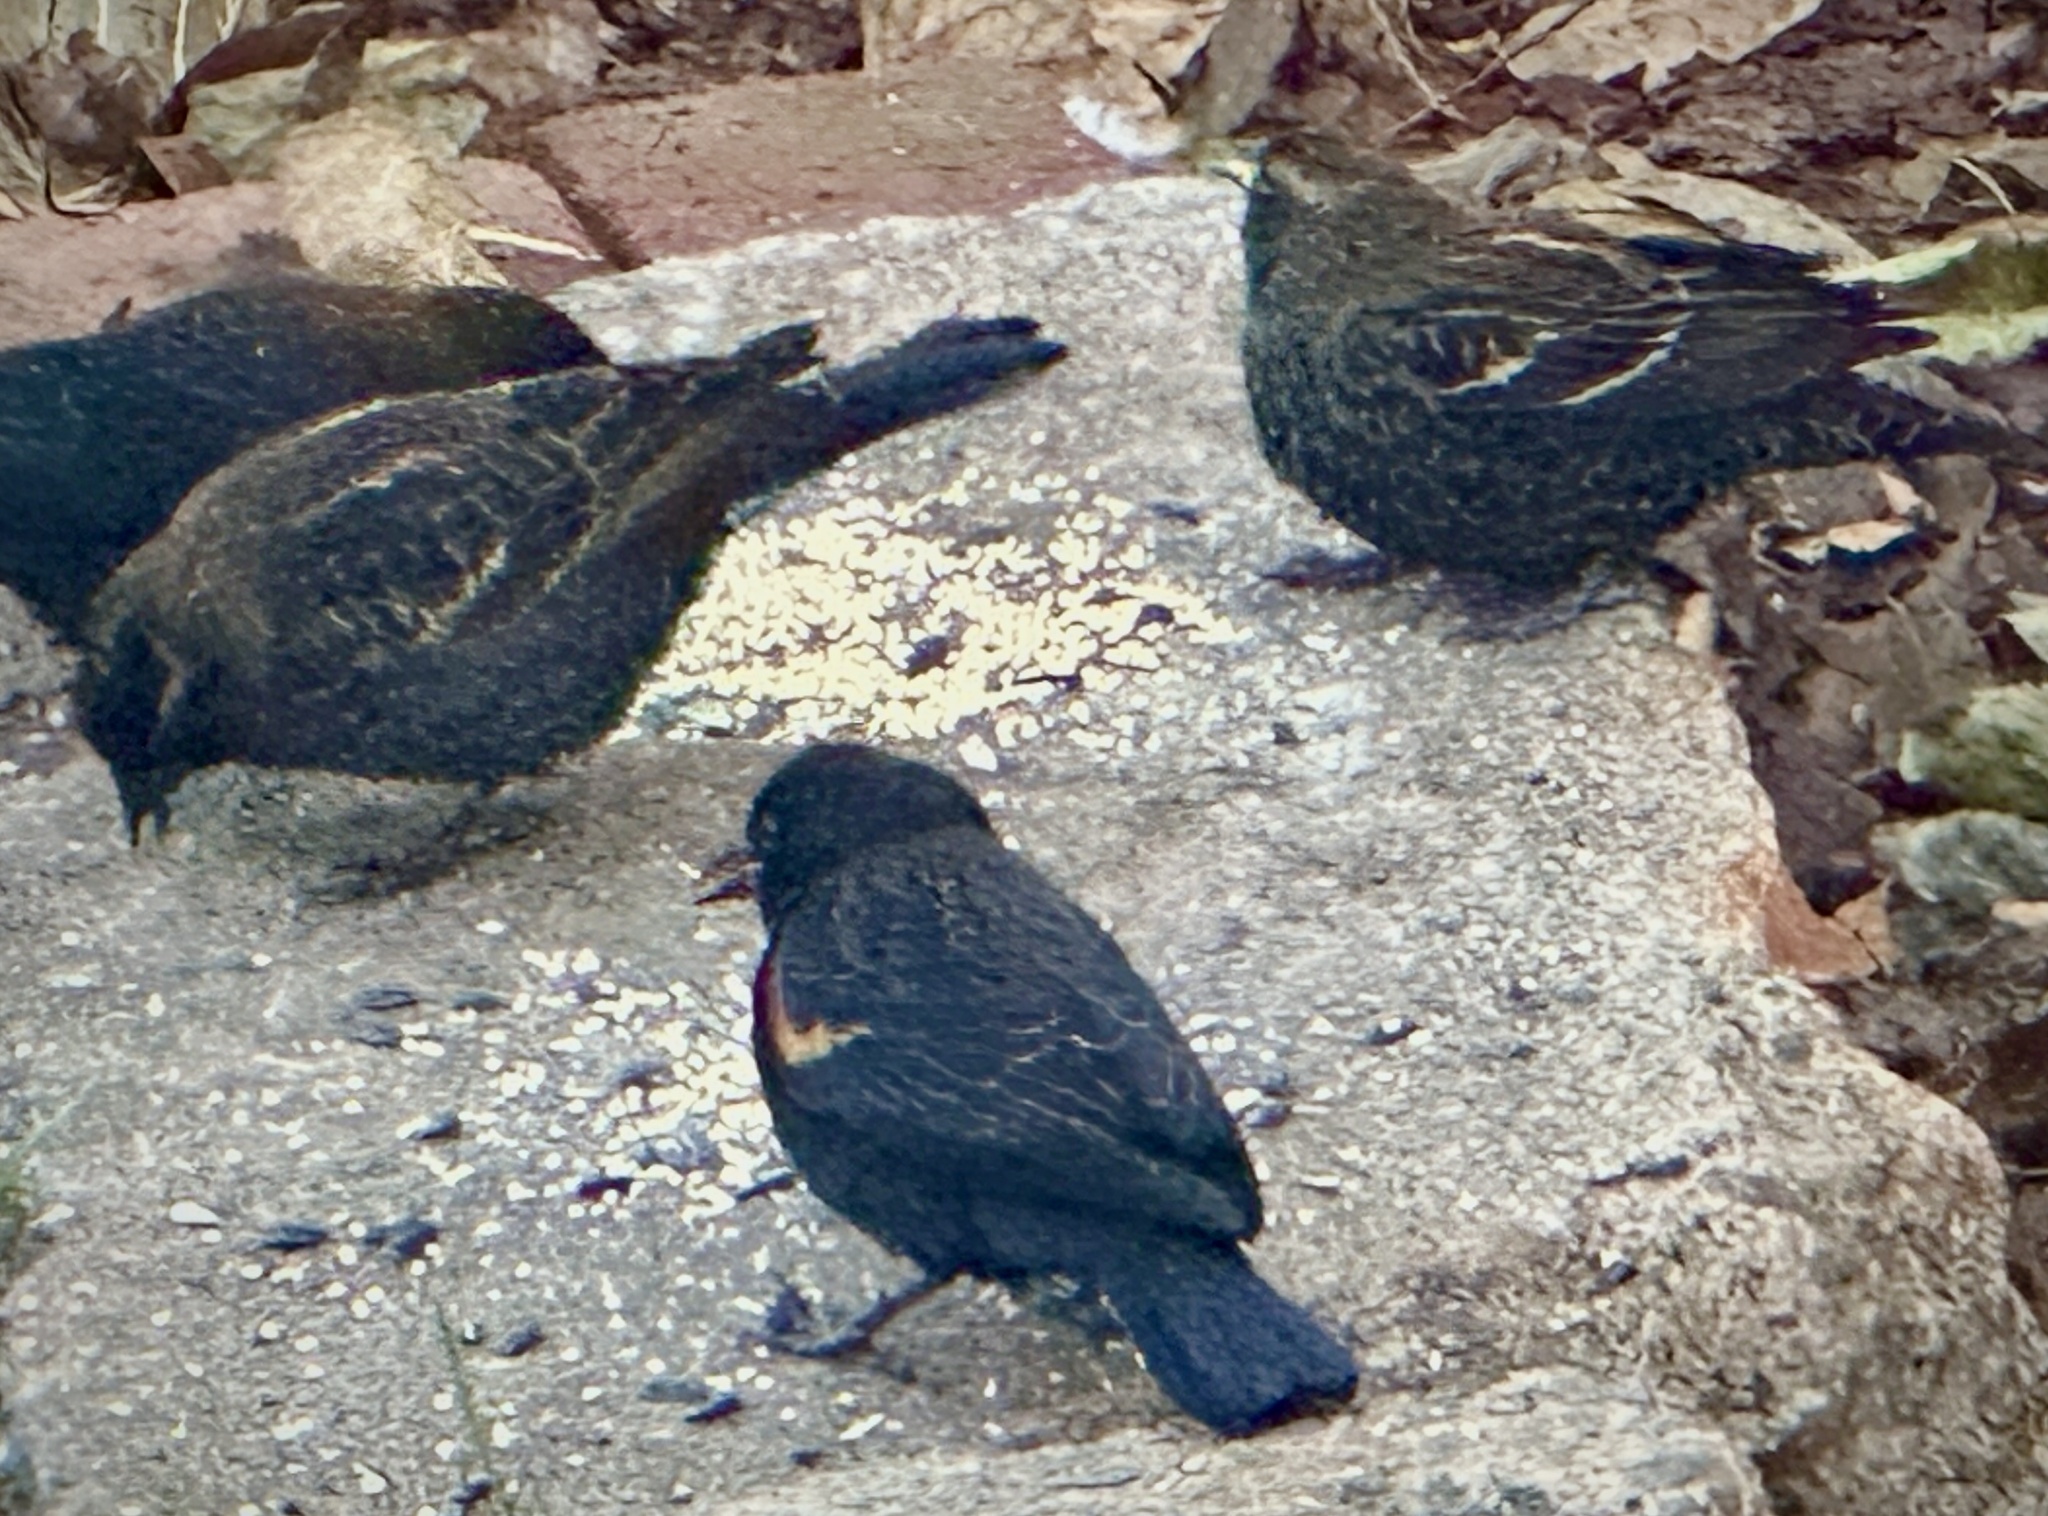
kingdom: Animalia
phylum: Chordata
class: Aves
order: Passeriformes
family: Icteridae
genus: Agelaius
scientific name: Agelaius phoeniceus
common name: Red-winged blackbird
